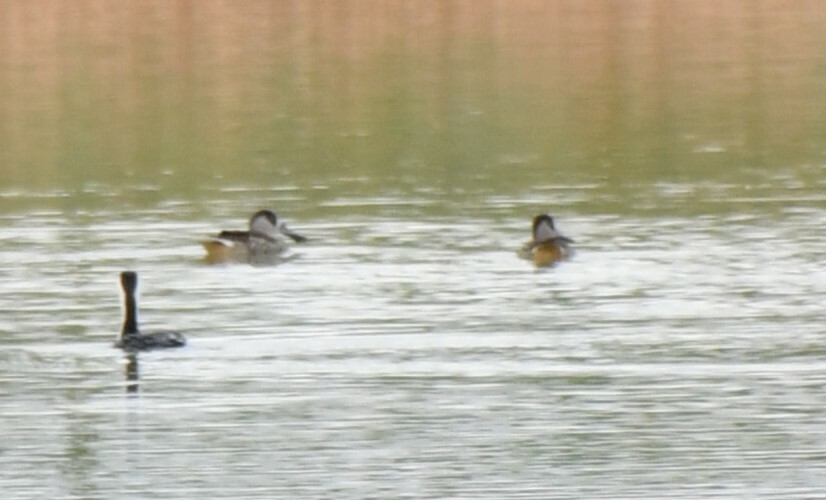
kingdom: Animalia
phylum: Chordata
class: Aves
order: Anseriformes
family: Anatidae
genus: Malacorhynchus
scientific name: Malacorhynchus membranaceus
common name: Pink-eared duck
